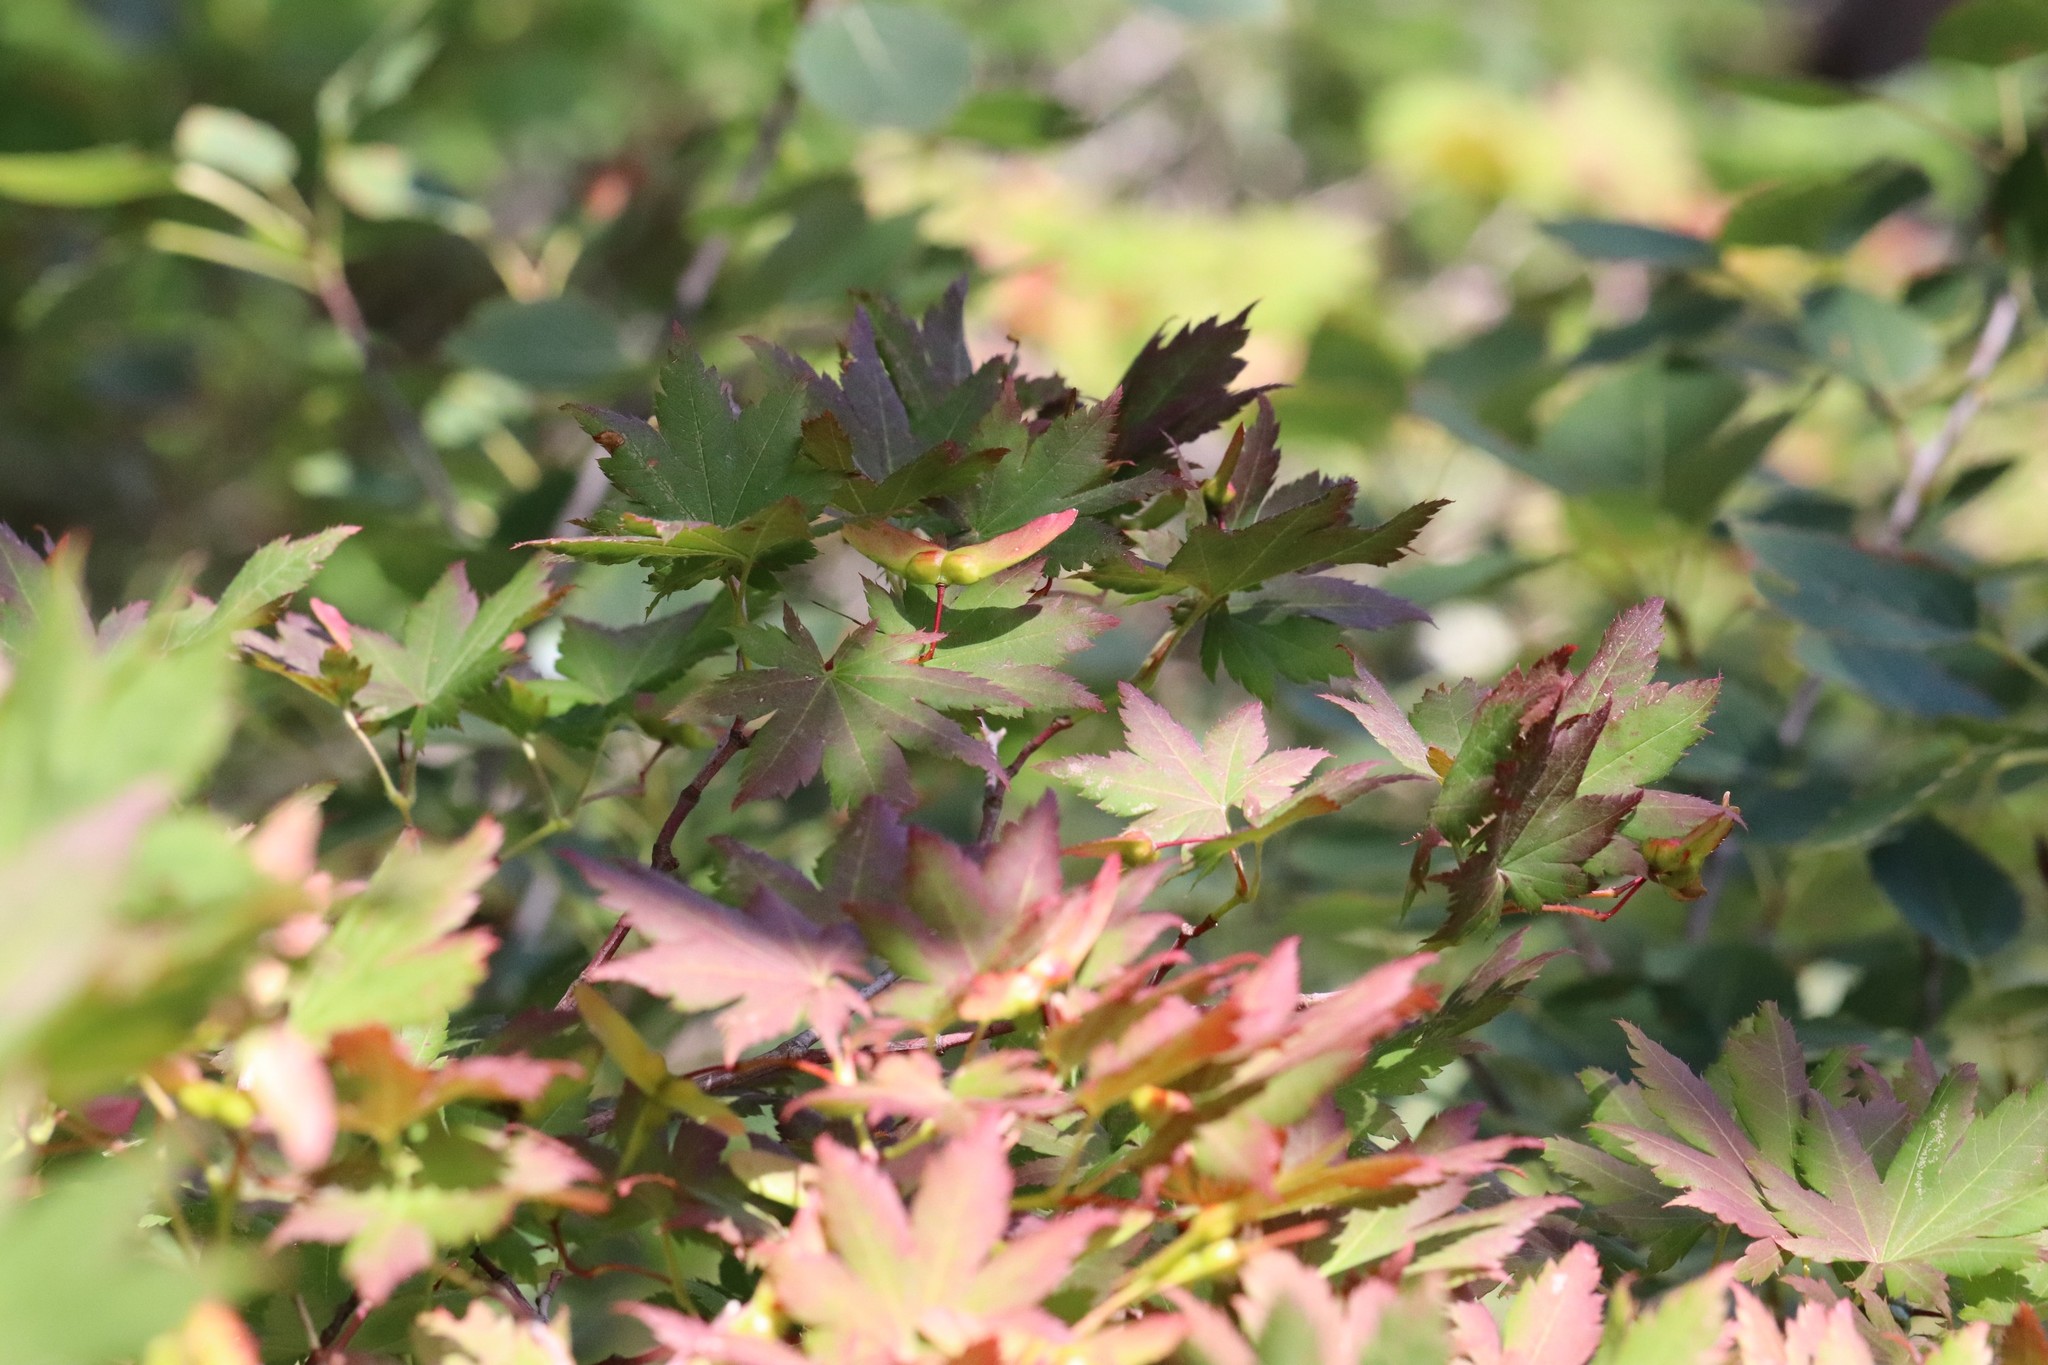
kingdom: Plantae
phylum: Tracheophyta
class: Magnoliopsida
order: Sapindales
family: Sapindaceae
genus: Acer
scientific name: Acer pseudosieboldianum
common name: Korean maple
